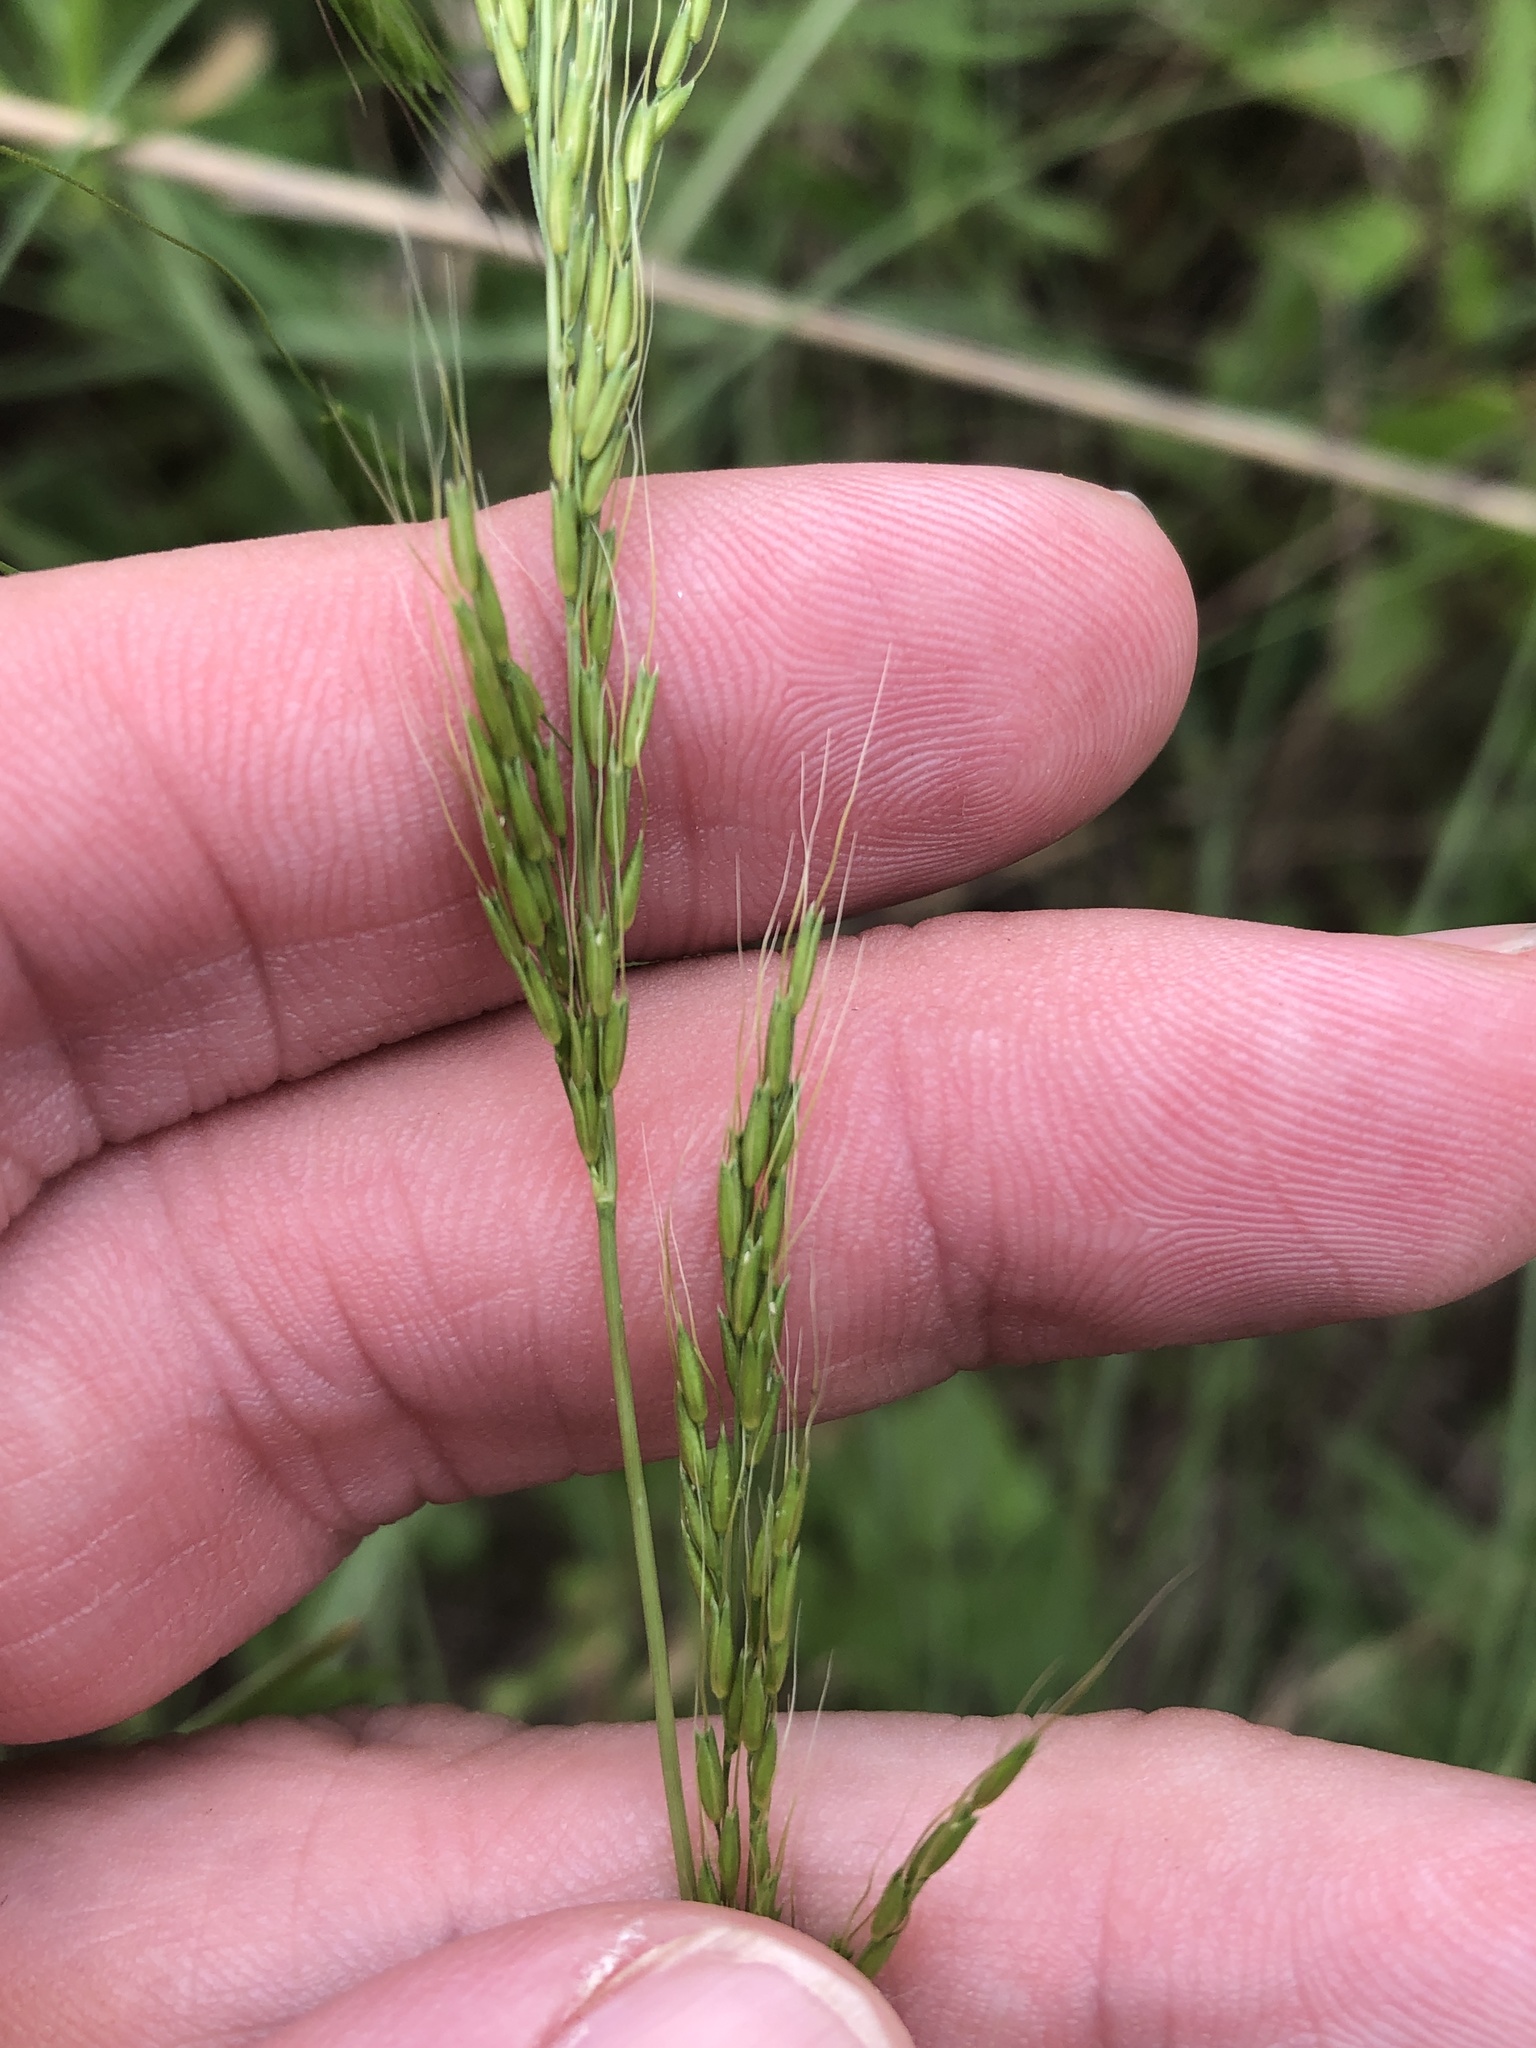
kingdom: Plantae
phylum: Tracheophyta
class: Liliopsida
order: Poales
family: Poaceae
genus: Limnodea
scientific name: Limnodea arkansana
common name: Ozark-grass
